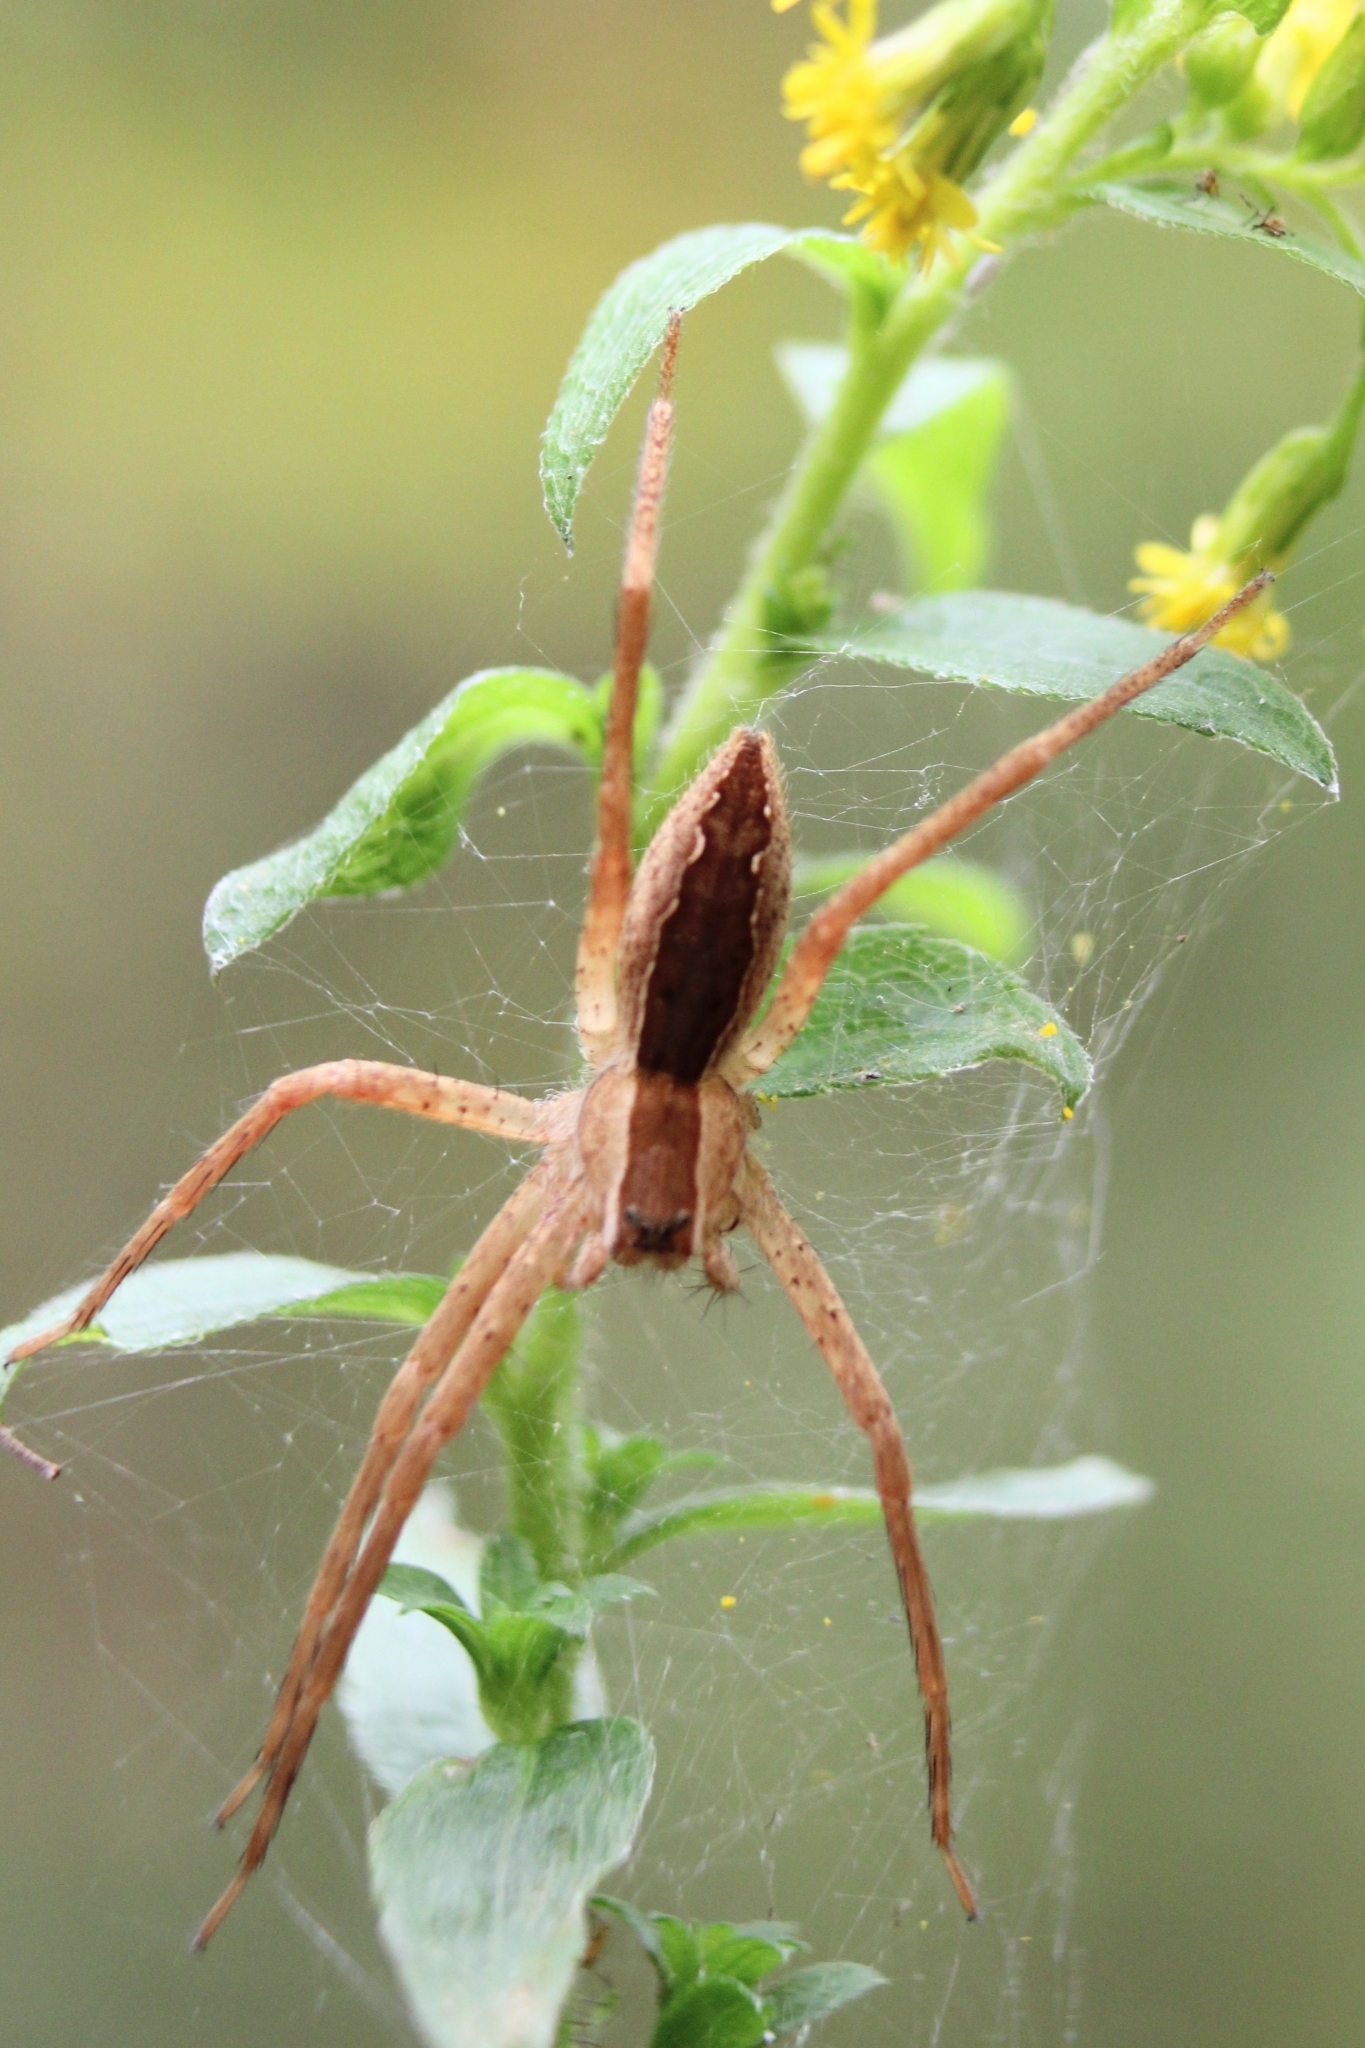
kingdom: Animalia
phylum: Arthropoda
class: Arachnida
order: Araneae
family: Pisauridae
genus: Pisaurina
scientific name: Pisaurina mira
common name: American nursery web spider
